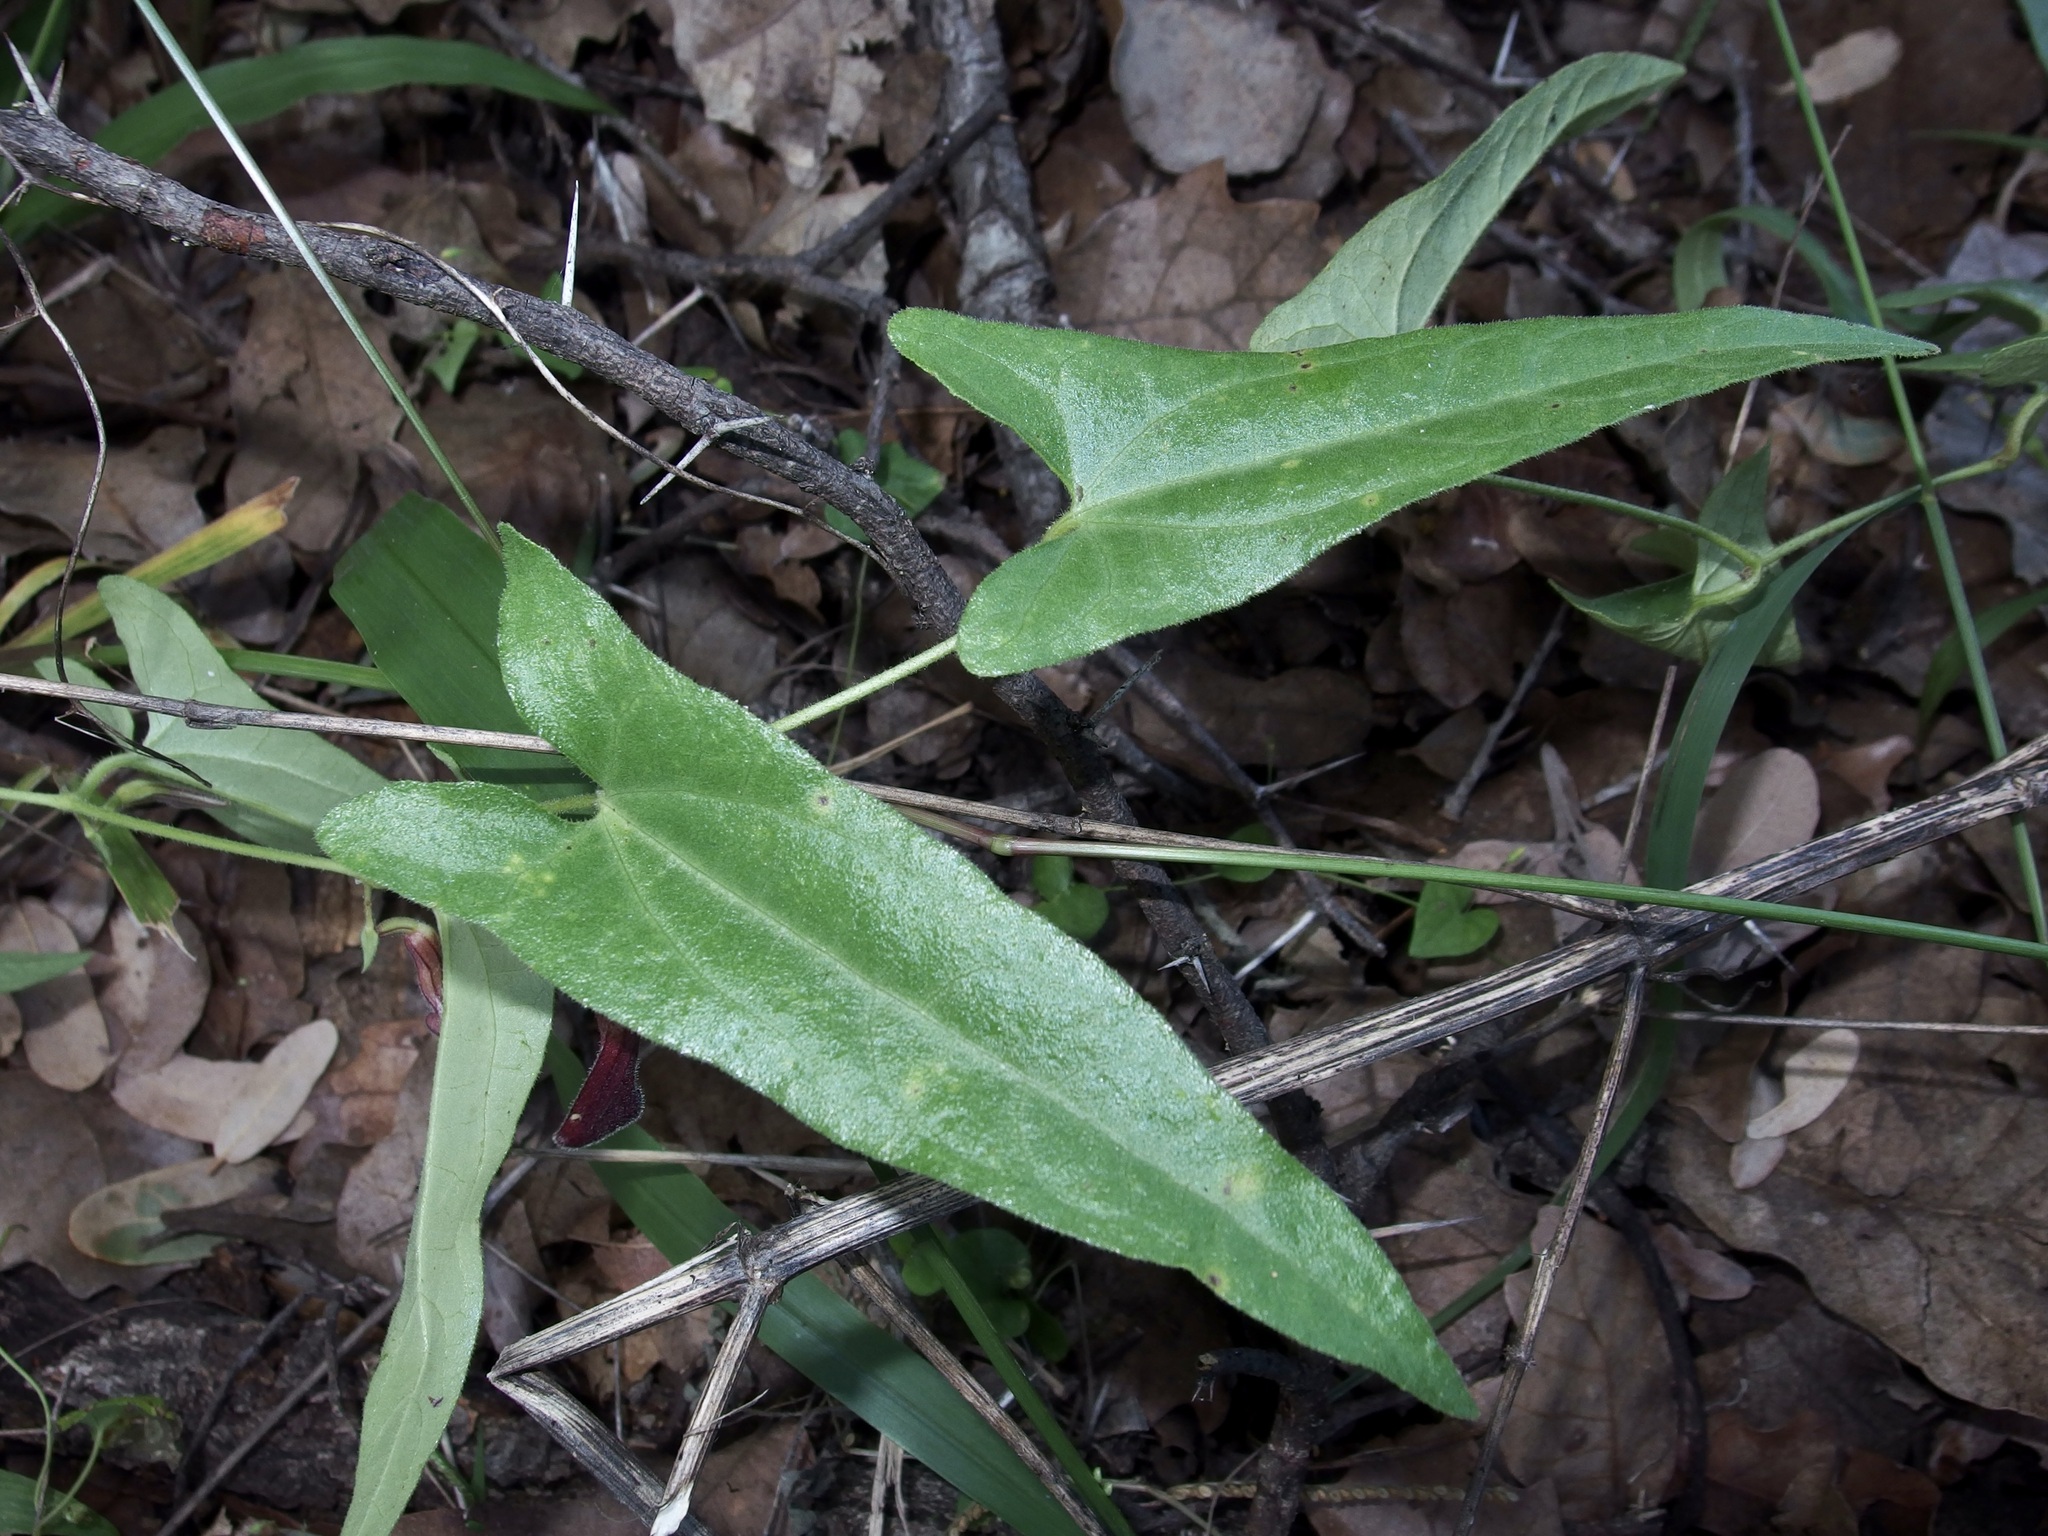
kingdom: Plantae
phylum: Tracheophyta
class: Magnoliopsida
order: Piperales
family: Aristolochiaceae
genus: Aristolochia
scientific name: Aristolochia watsonii
